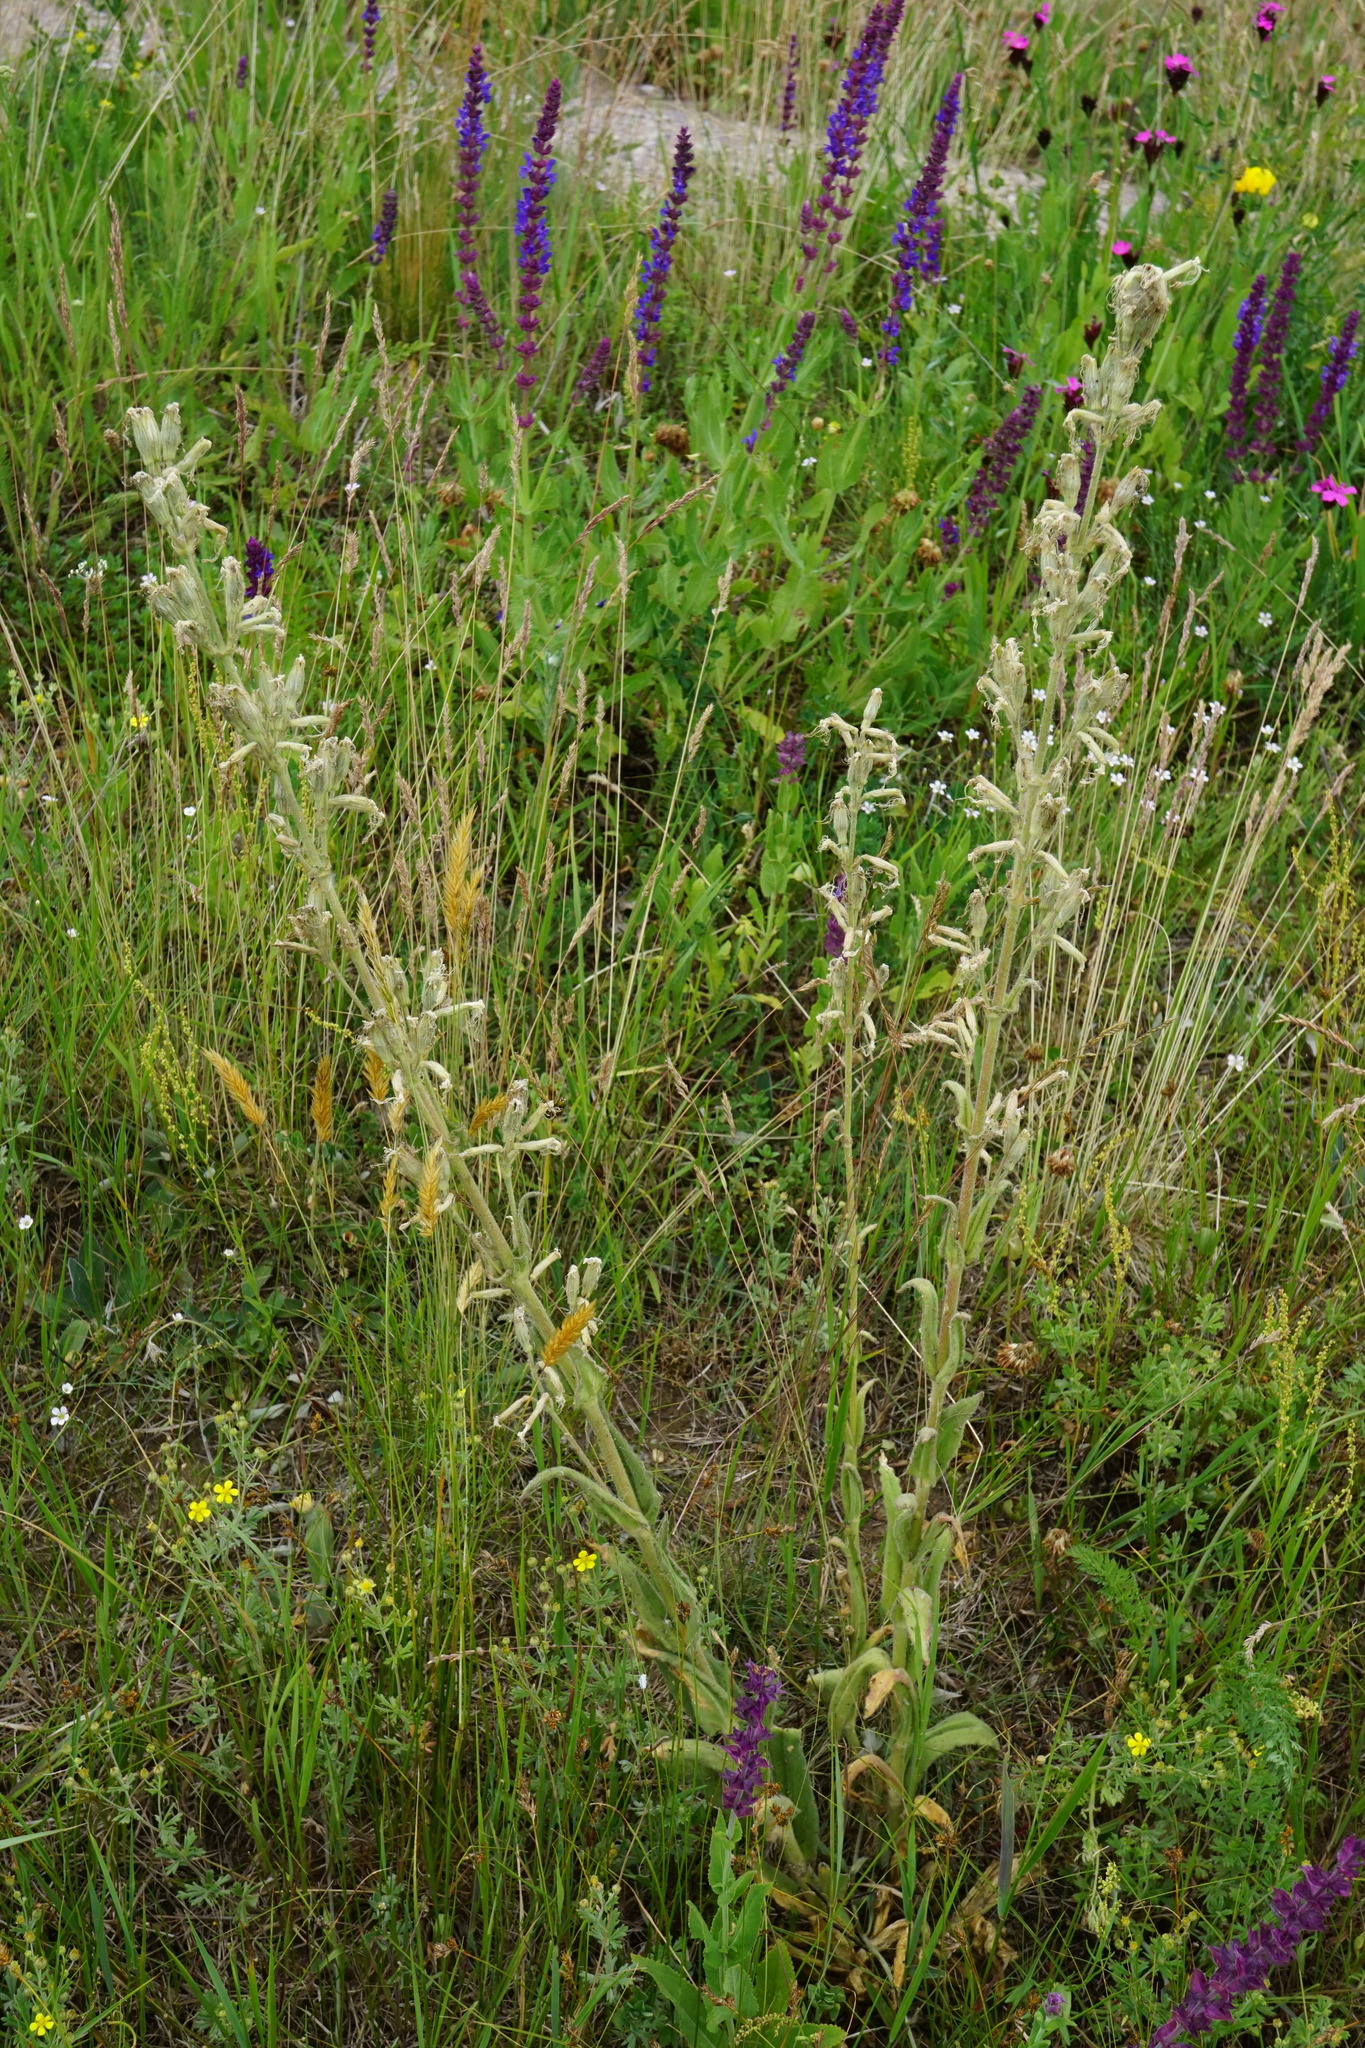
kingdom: Plantae
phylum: Tracheophyta
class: Magnoliopsida
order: Caryophyllales
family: Caryophyllaceae
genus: Silene
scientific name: Silene viscosa
